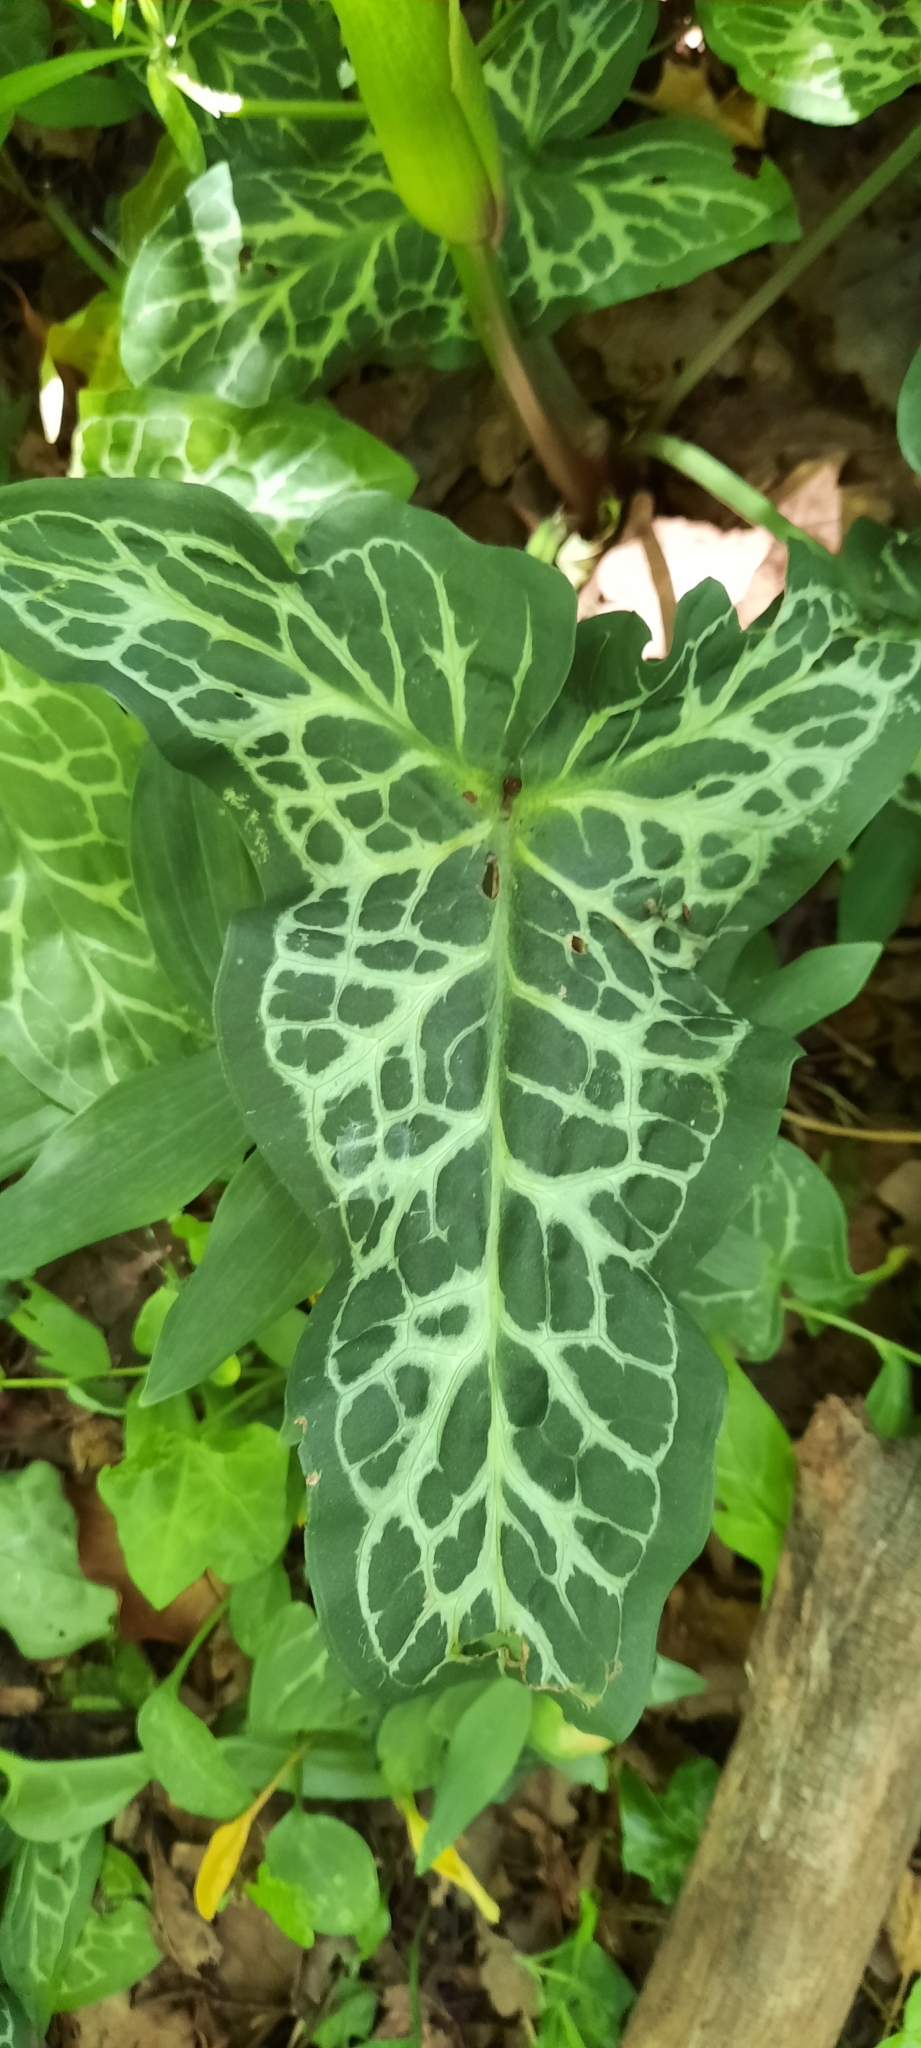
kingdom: Plantae
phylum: Tracheophyta
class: Liliopsida
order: Alismatales
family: Araceae
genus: Arum
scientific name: Arum italicum
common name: Italian lords-and-ladies
